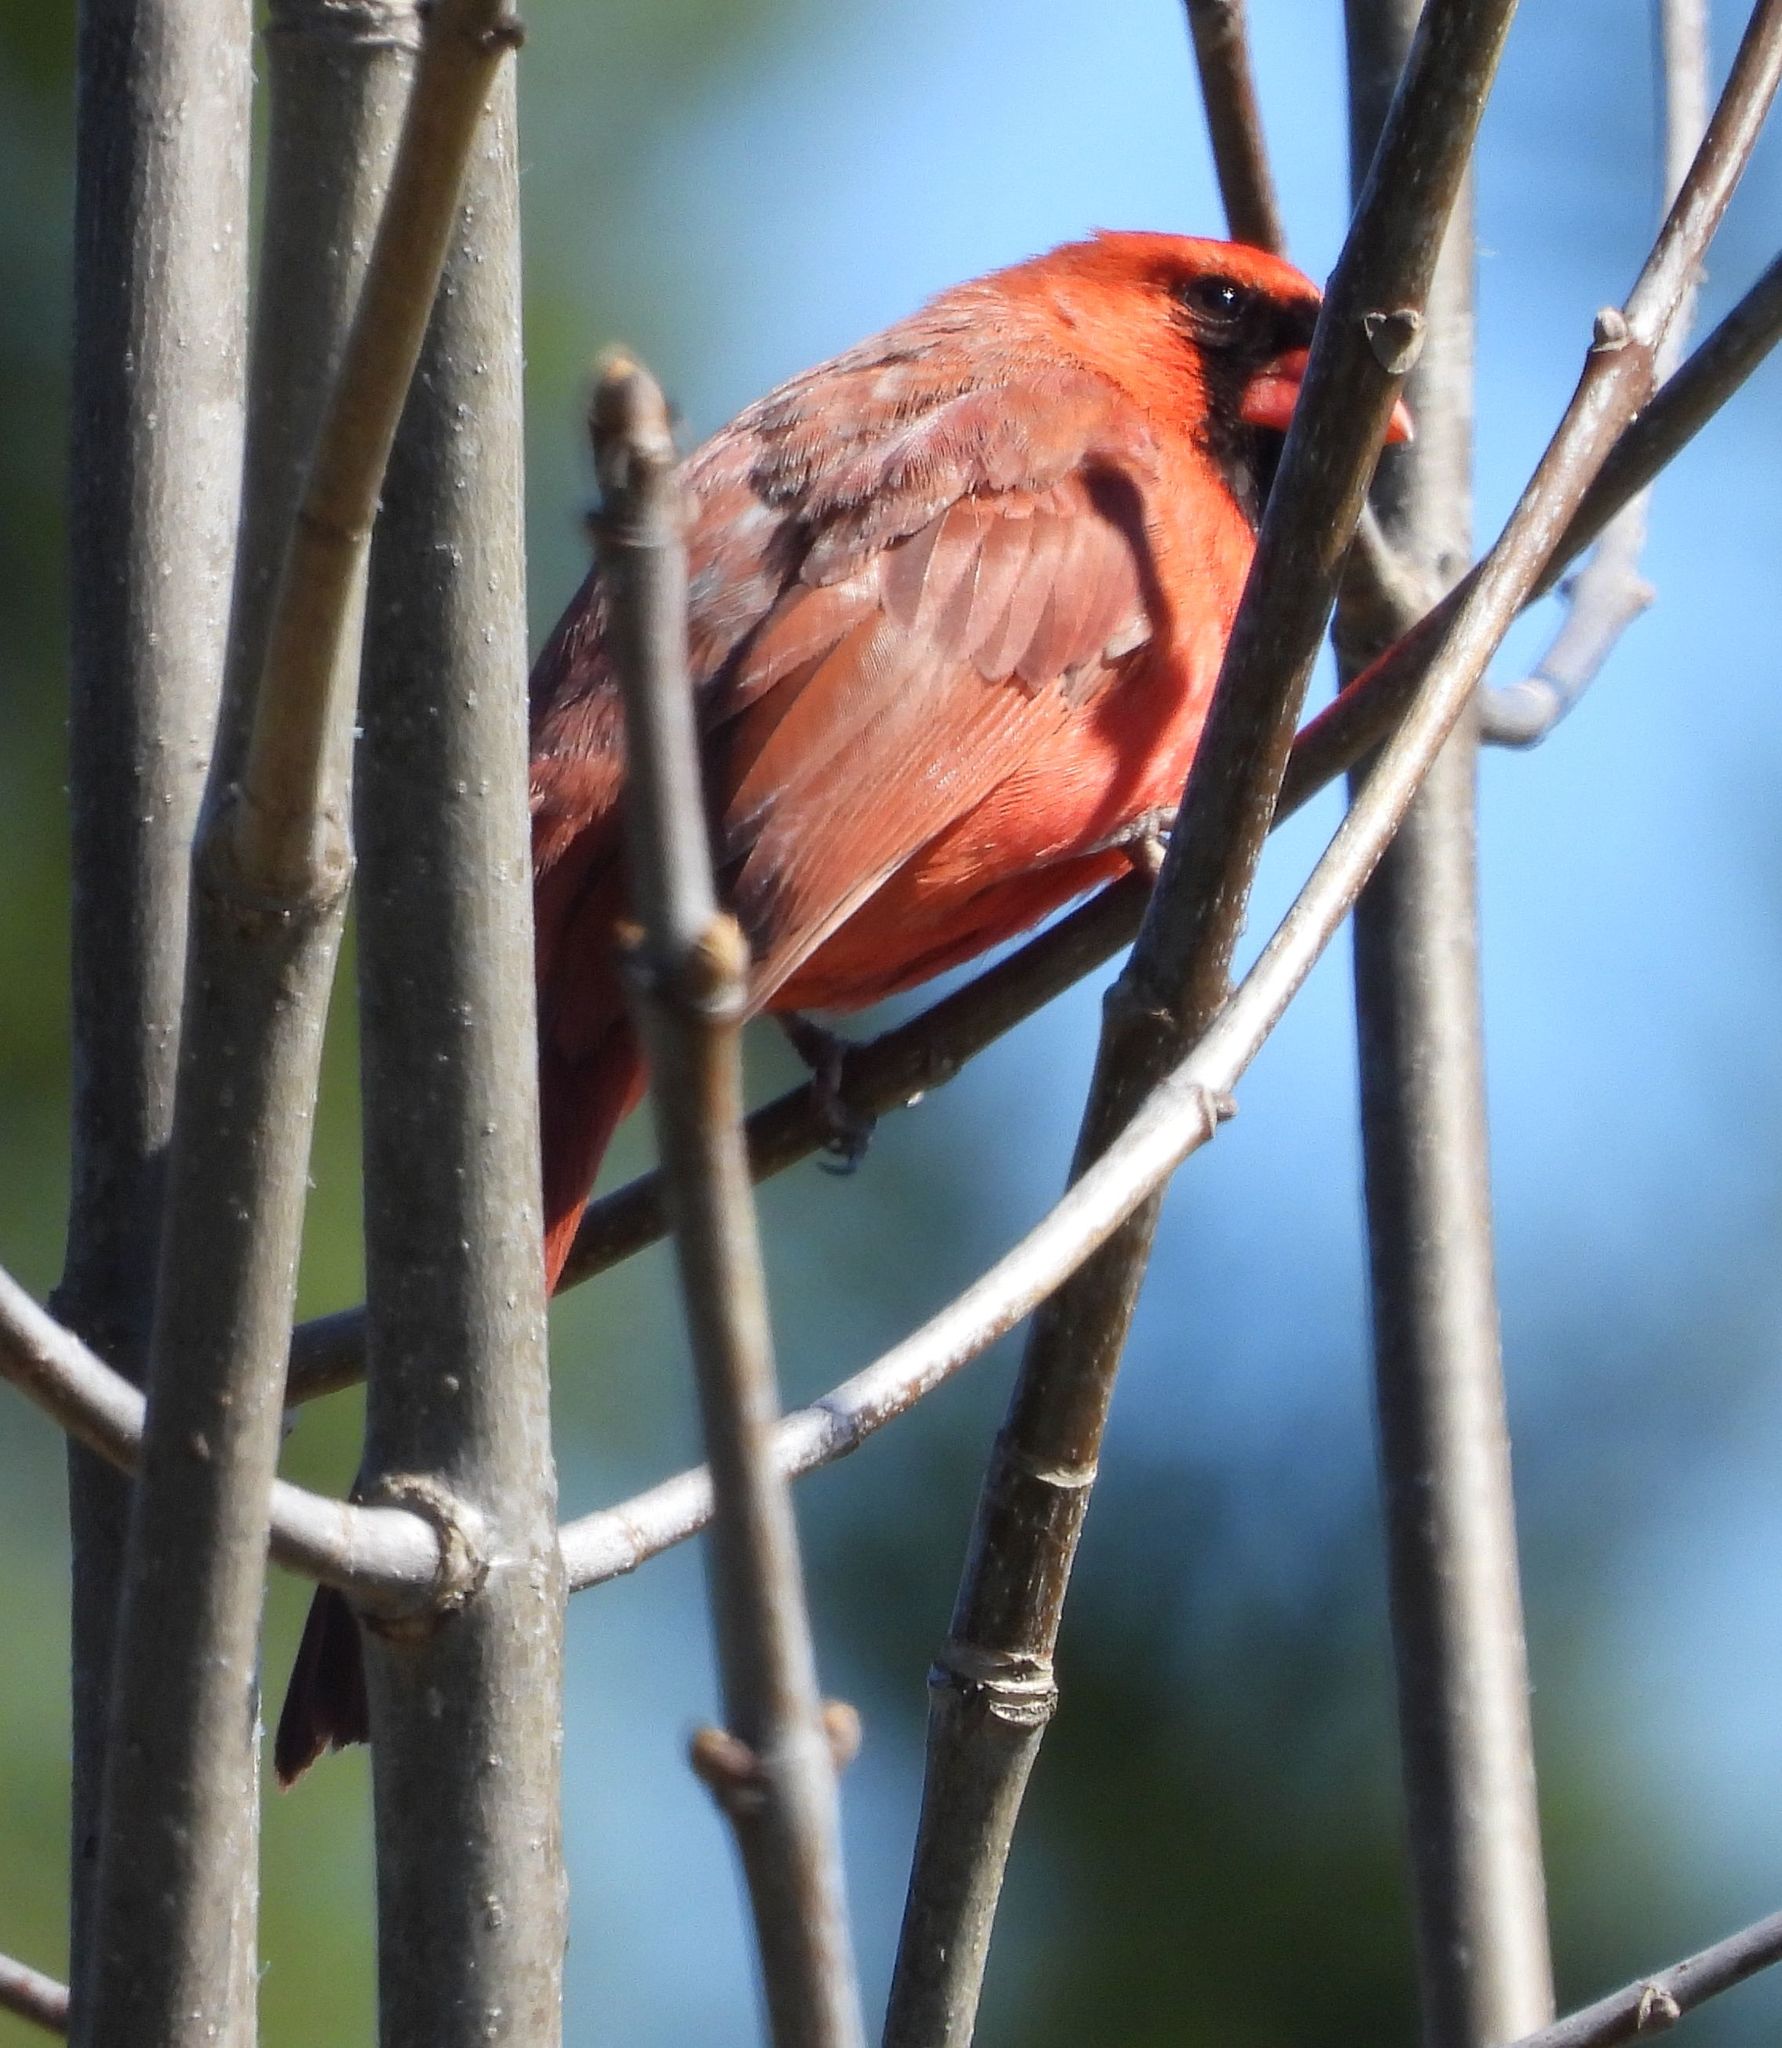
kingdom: Animalia
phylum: Chordata
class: Aves
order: Passeriformes
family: Cardinalidae
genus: Cardinalis
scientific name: Cardinalis cardinalis
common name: Northern cardinal
